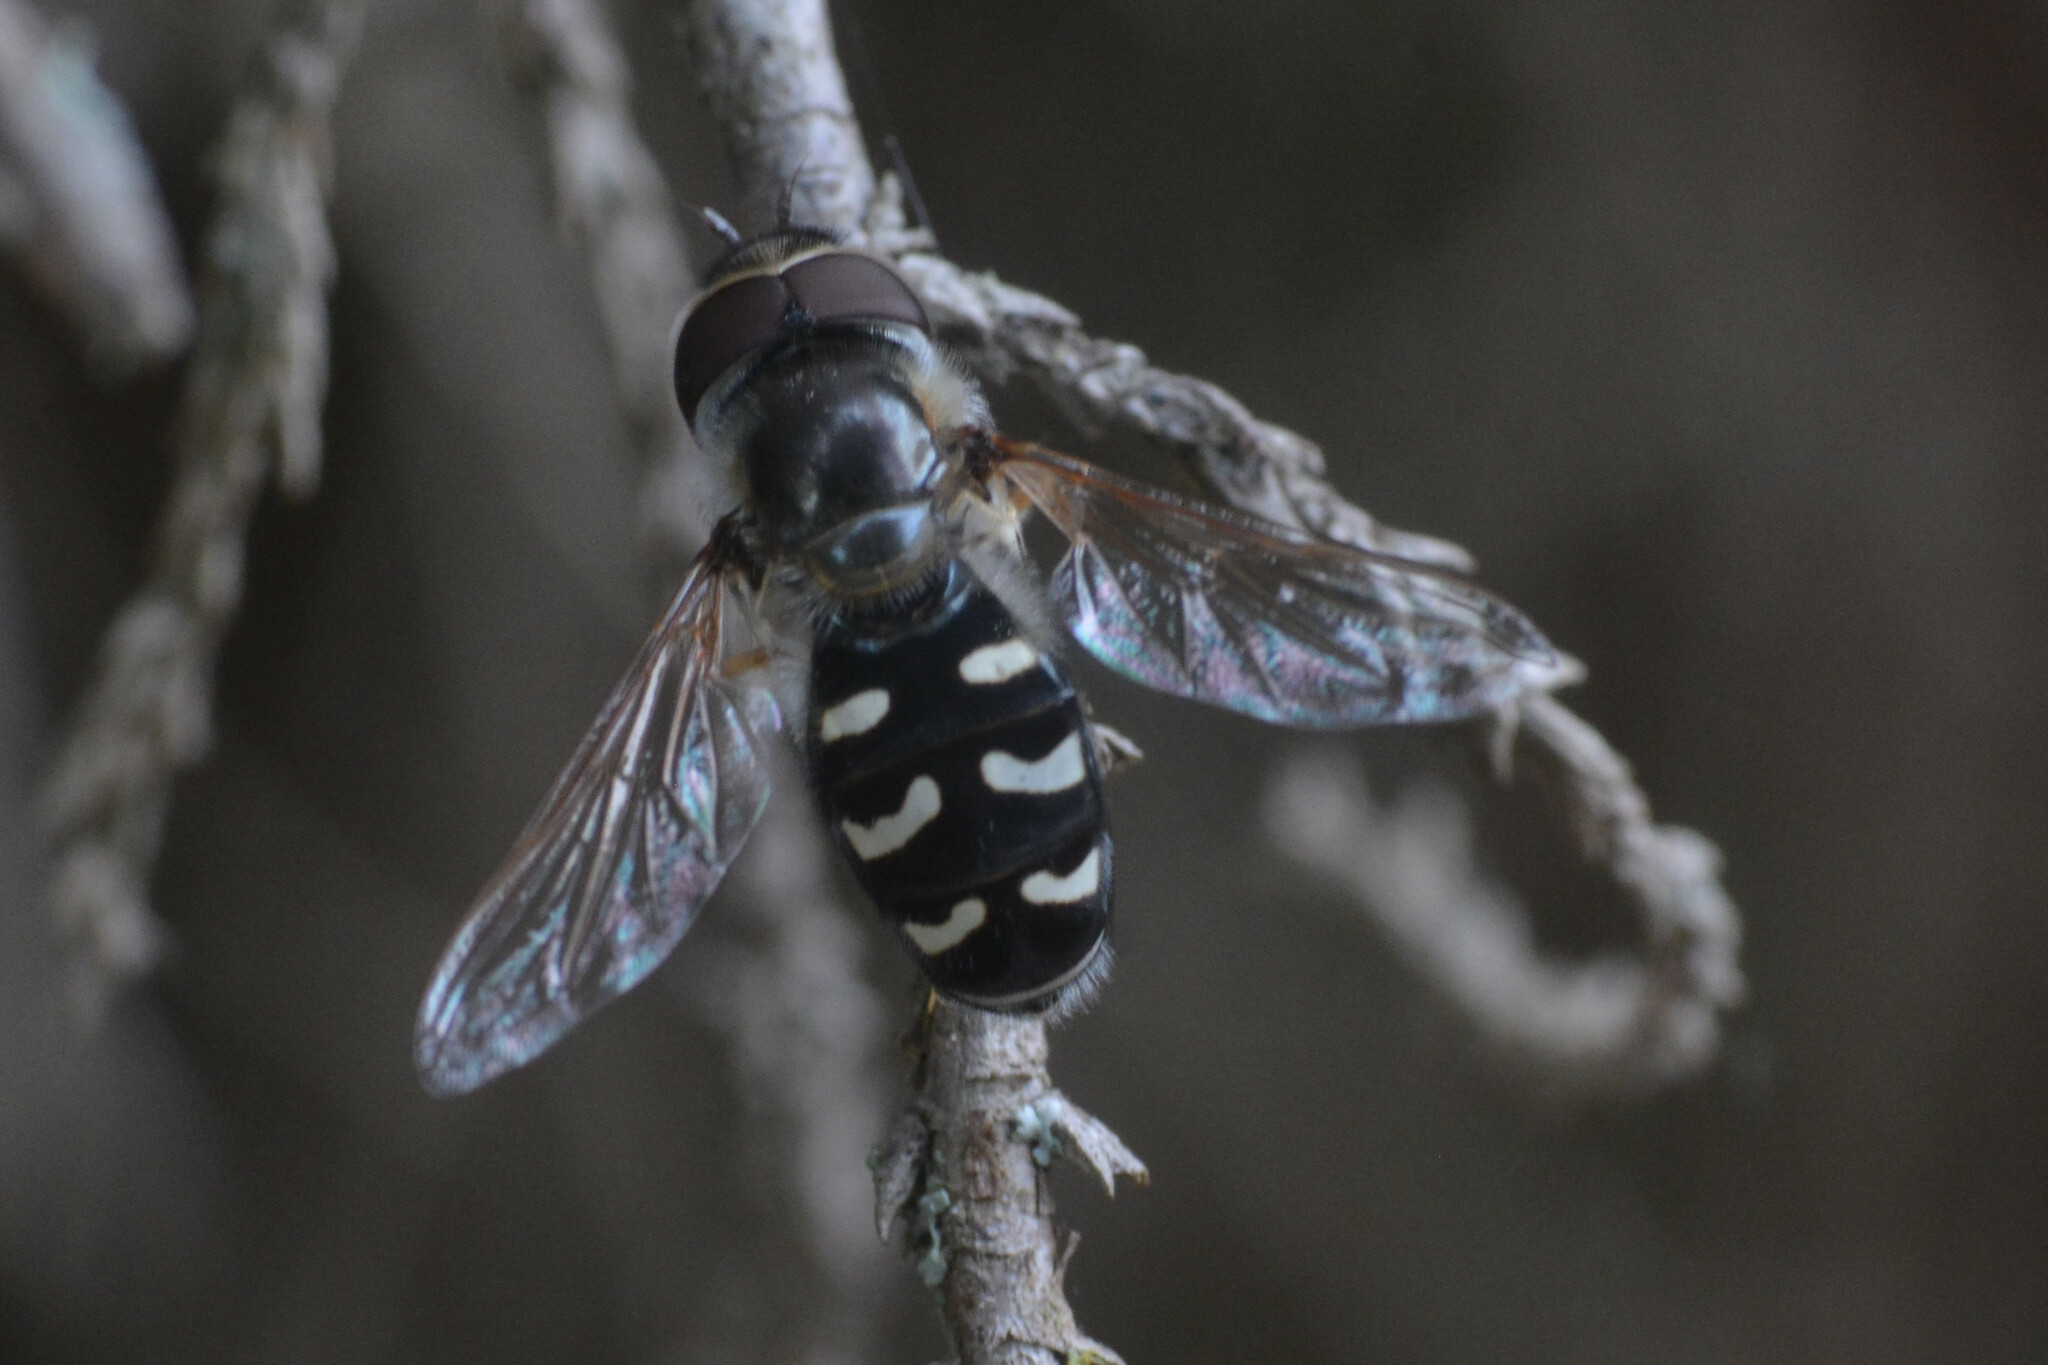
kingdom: Animalia
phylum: Arthropoda
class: Insecta
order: Diptera
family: Syrphidae
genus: Scaeva
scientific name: Scaeva pyrastri
